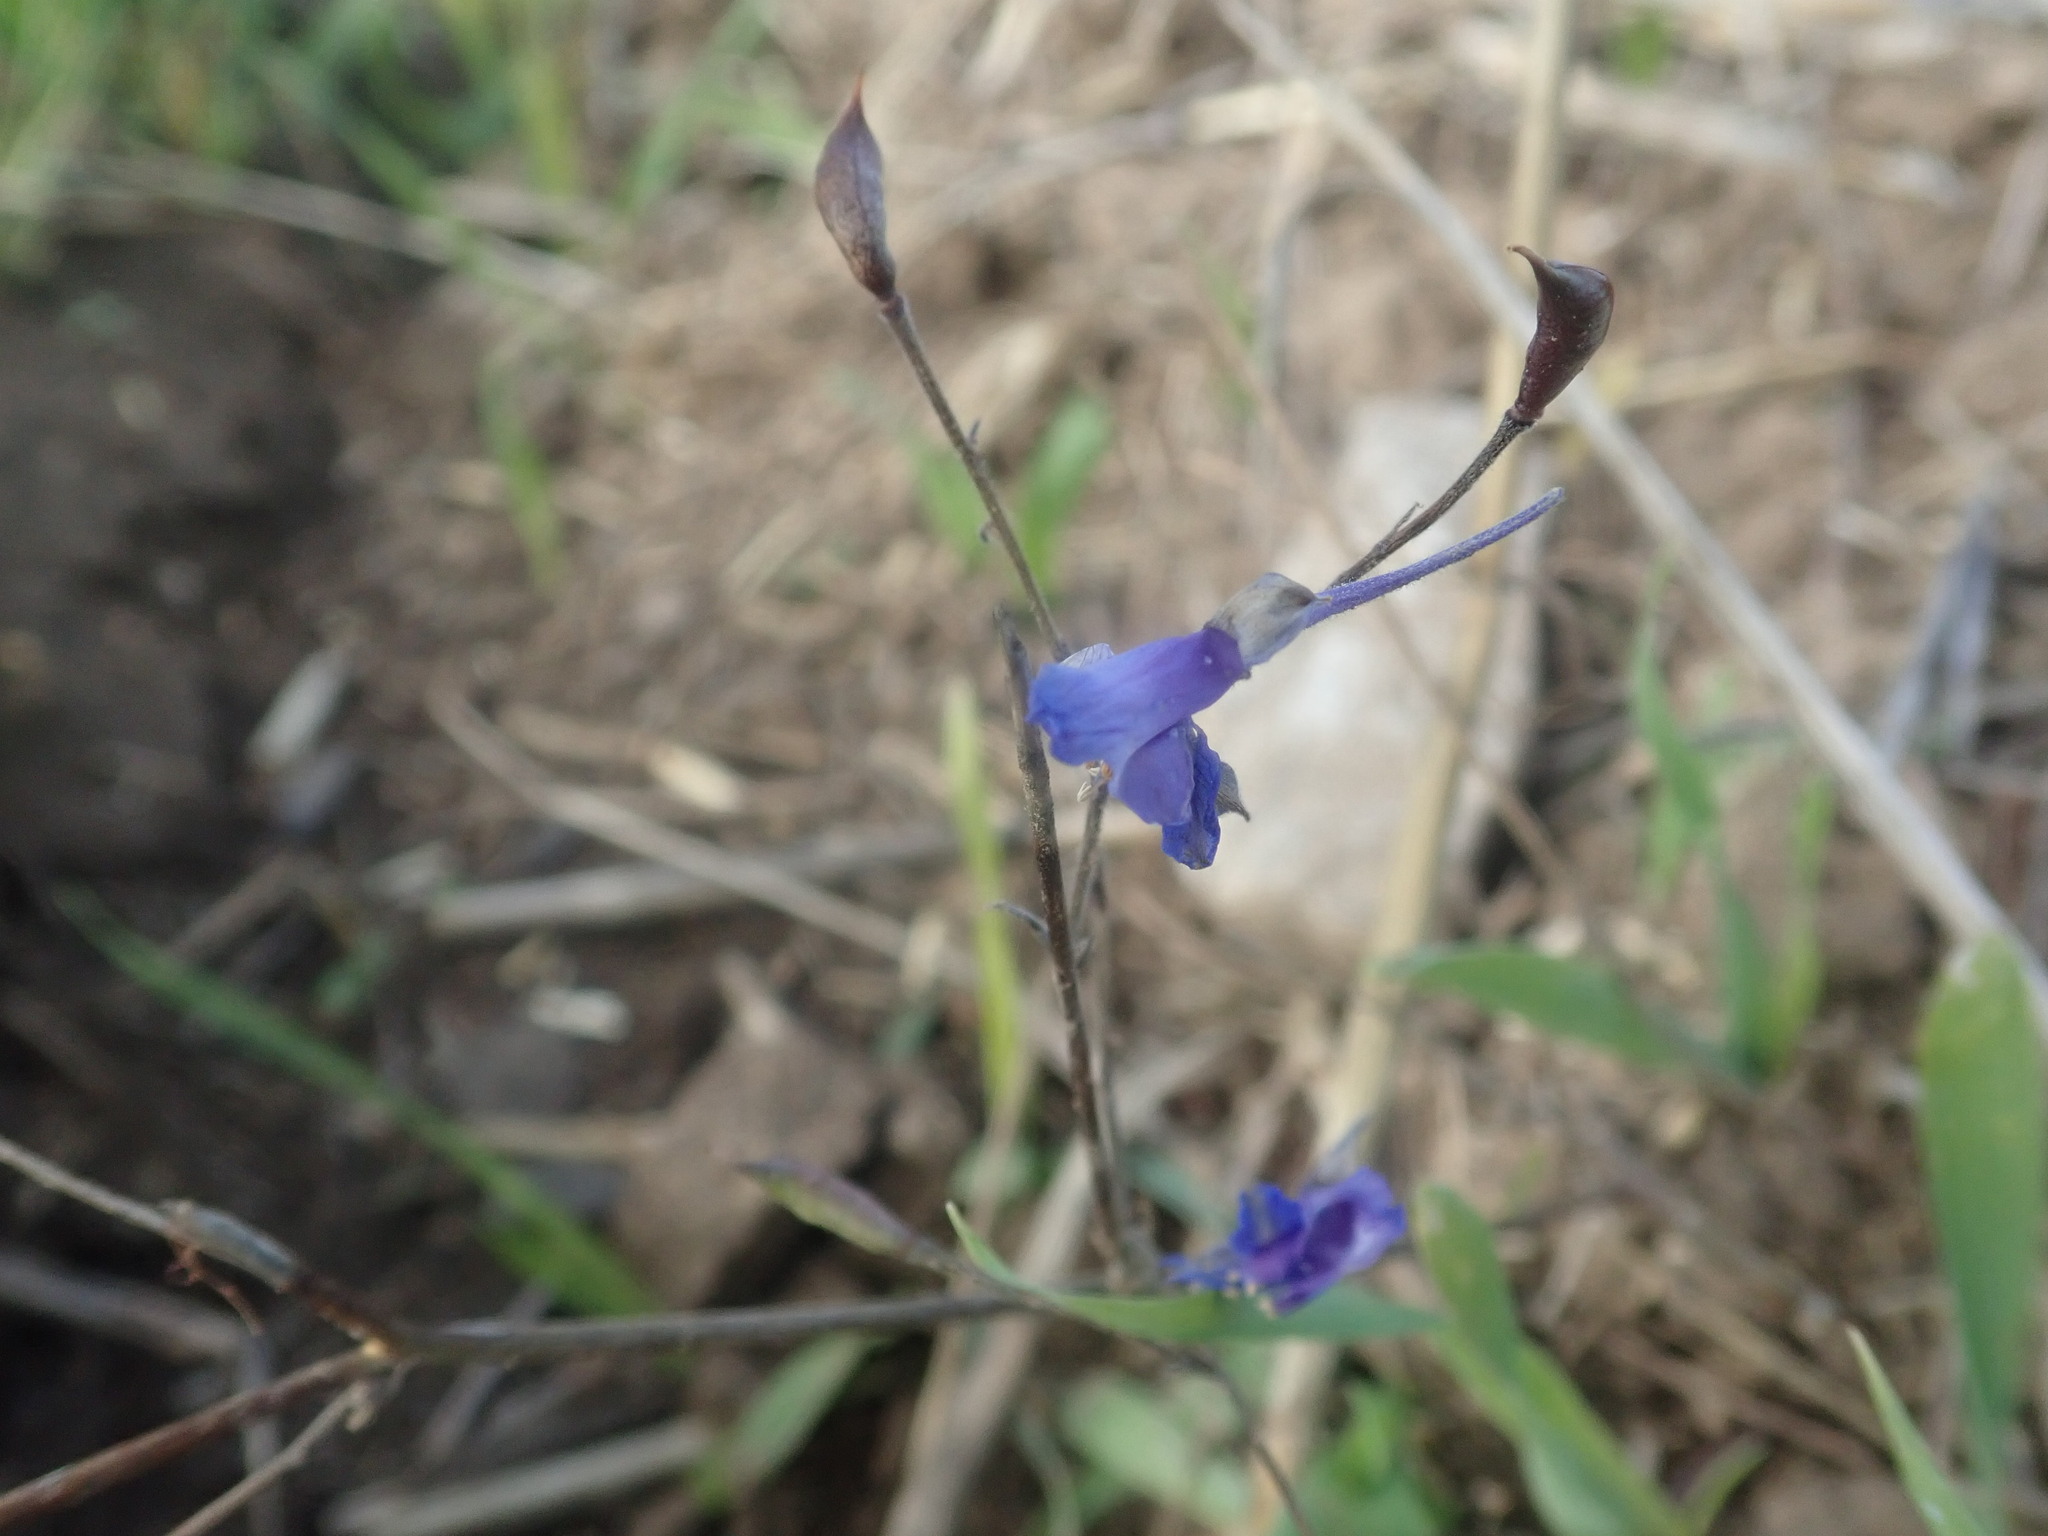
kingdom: Plantae
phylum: Tracheophyta
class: Magnoliopsida
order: Ranunculales
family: Ranunculaceae
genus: Delphinium
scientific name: Delphinium consolida
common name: Branching larkspur
